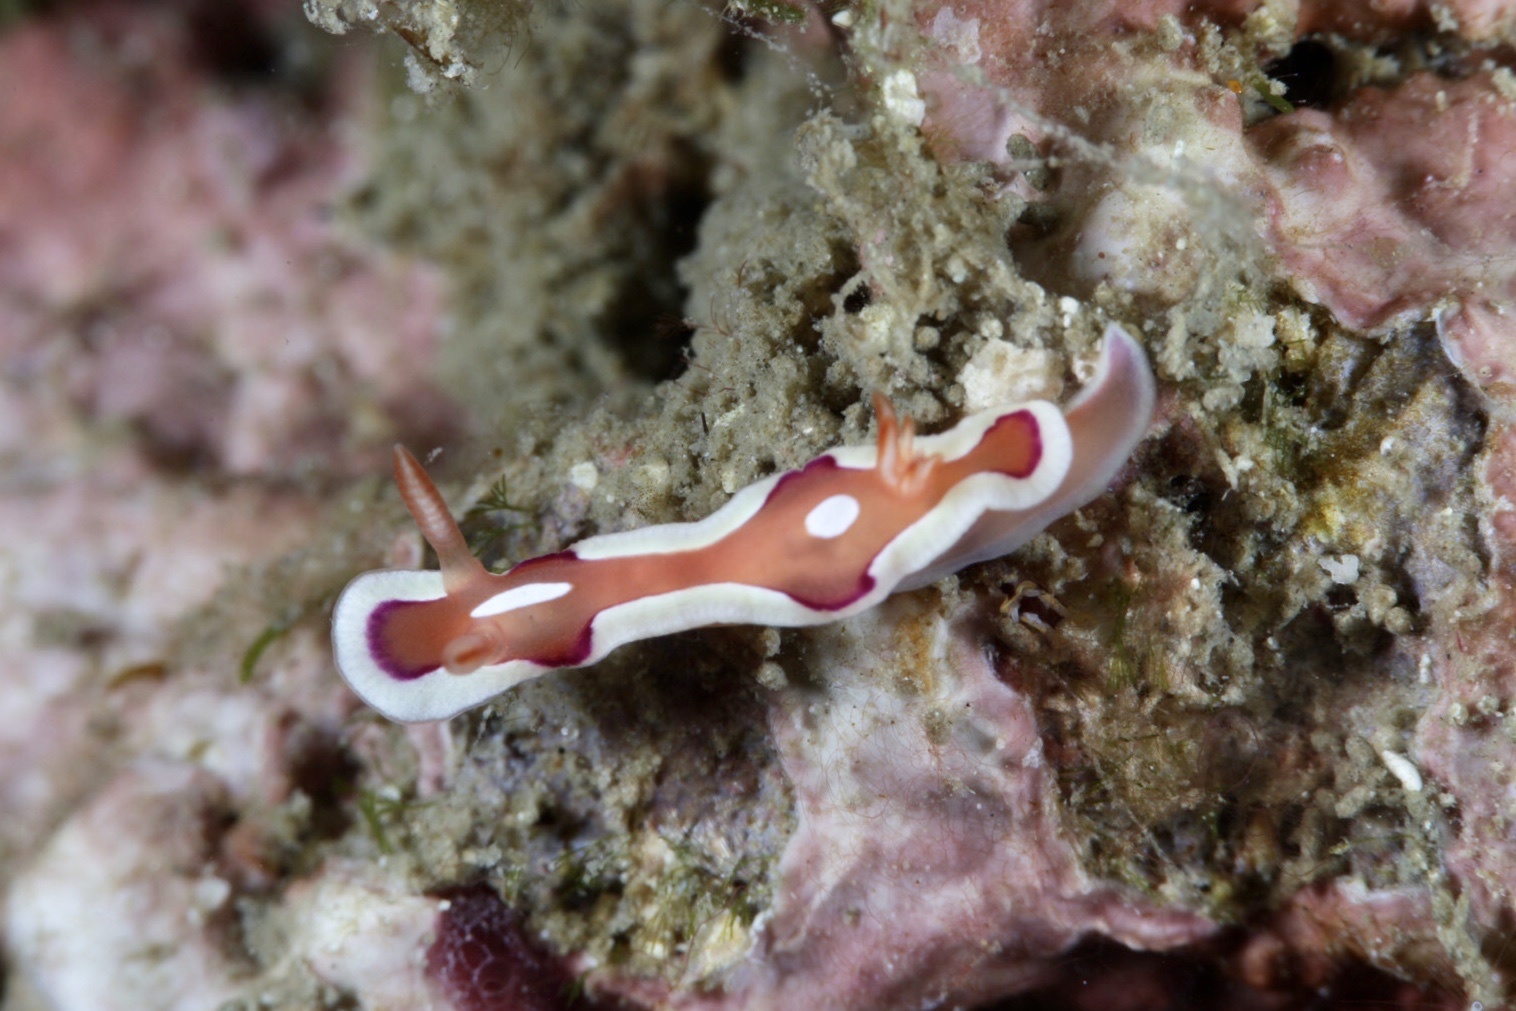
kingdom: Animalia
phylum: Mollusca
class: Gastropoda
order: Nudibranchia
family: Chromodorididae
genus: Mexichromis
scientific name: Mexichromis pusilla
